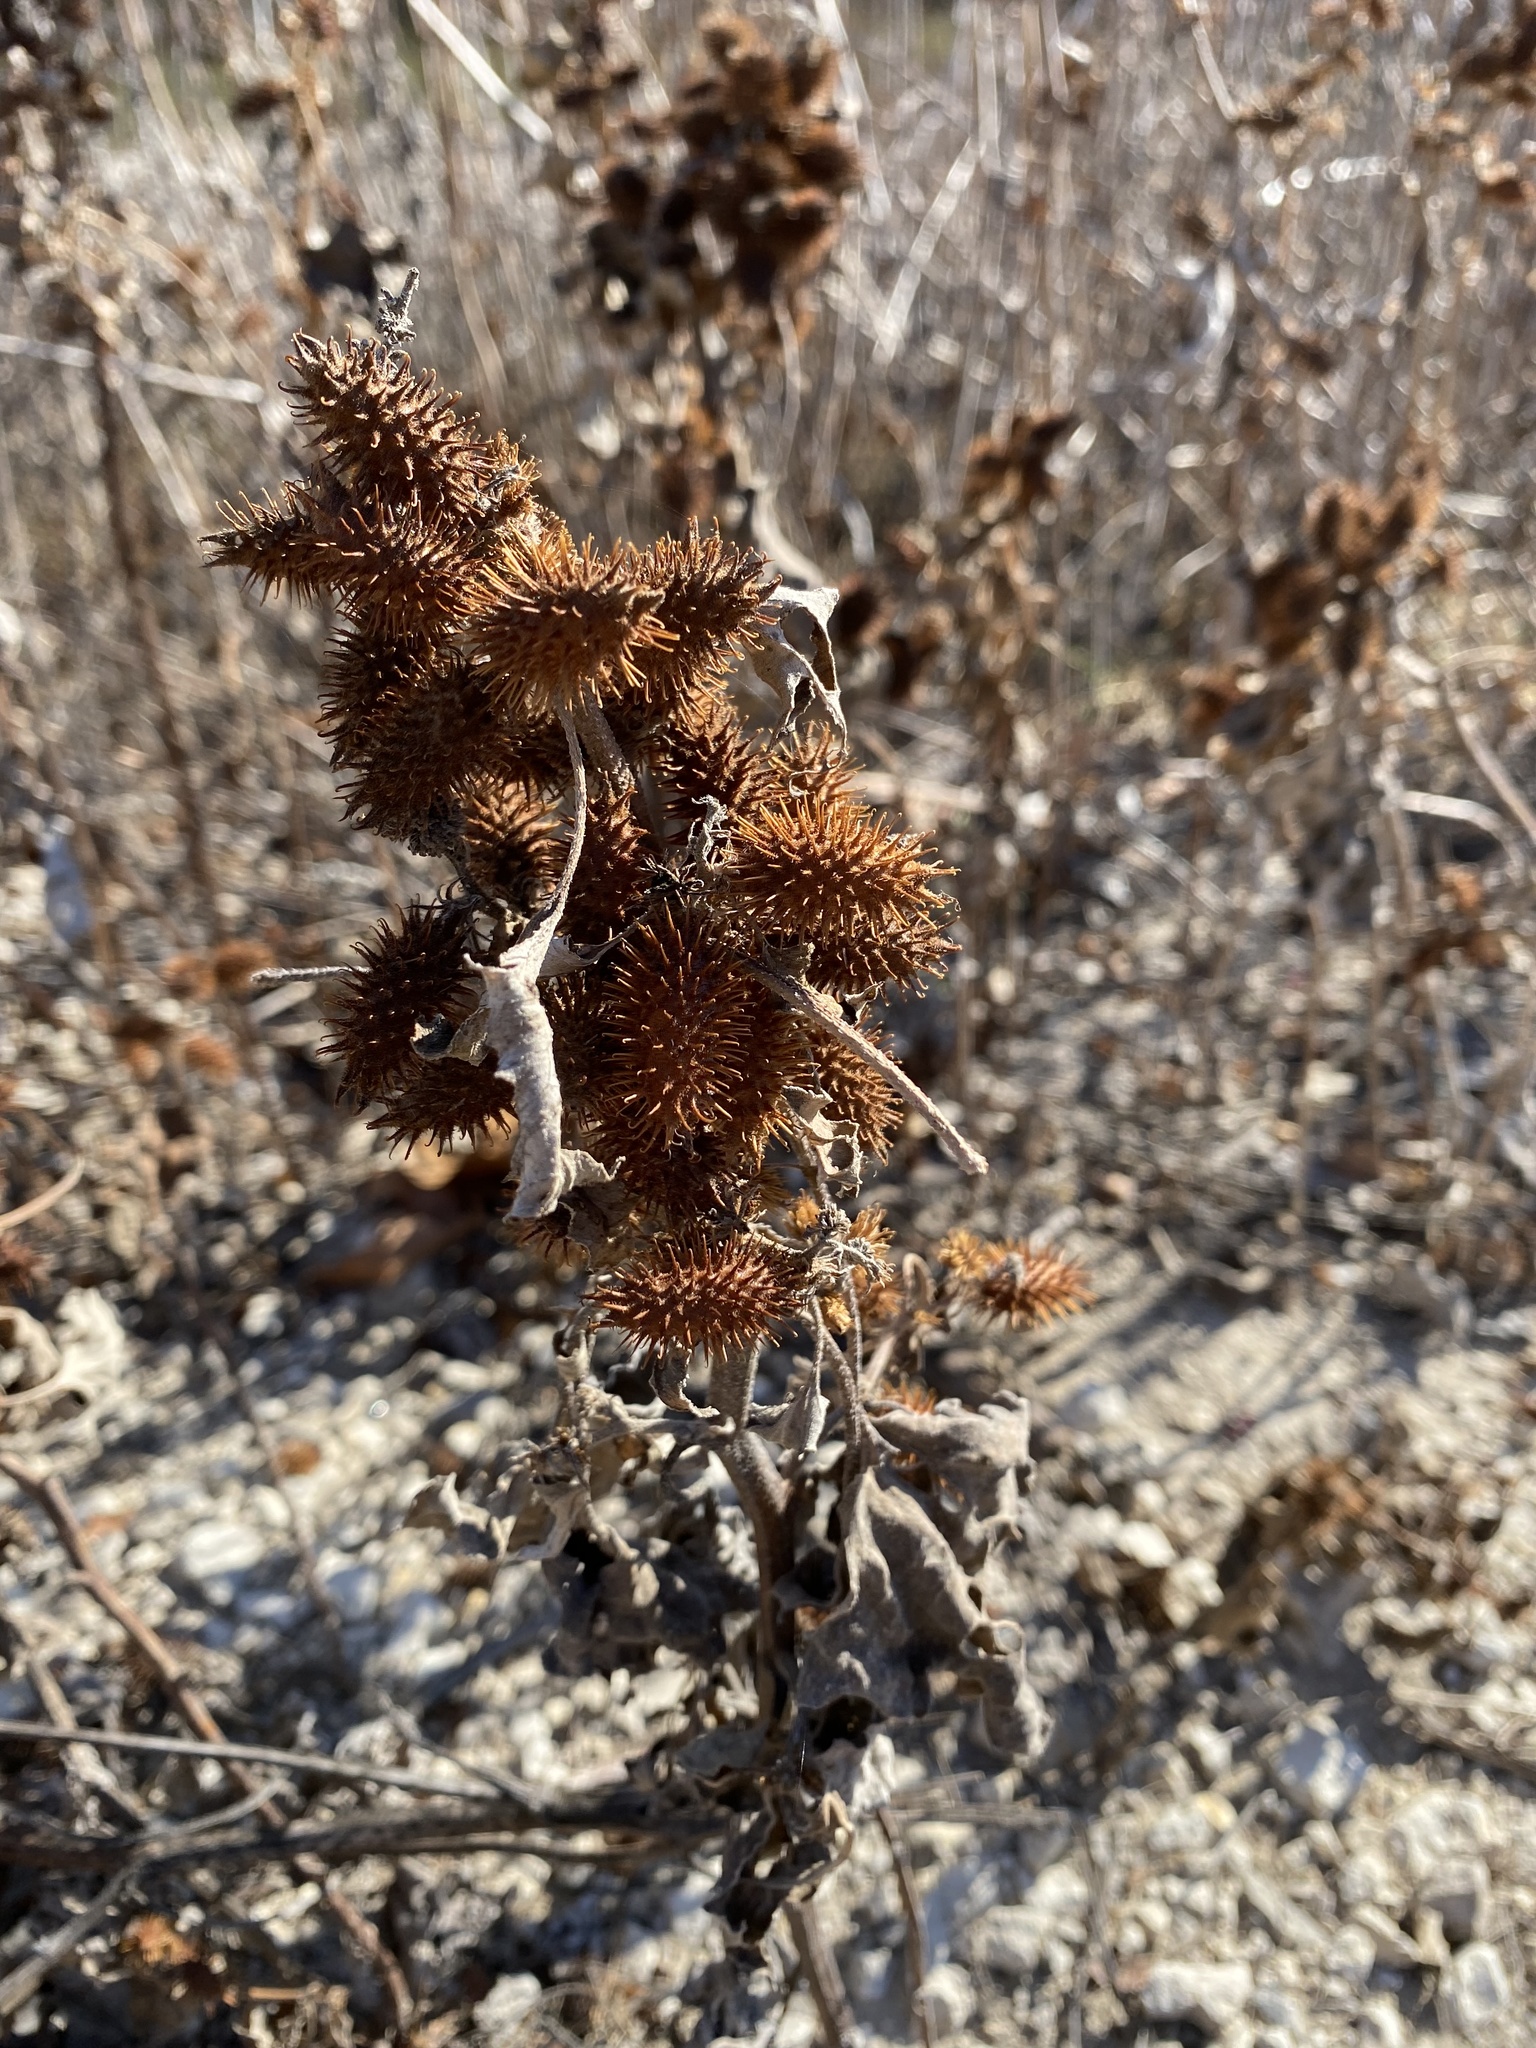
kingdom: Plantae
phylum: Tracheophyta
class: Magnoliopsida
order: Asterales
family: Asteraceae
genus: Xanthium
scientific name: Xanthium strumarium
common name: Rough cocklebur
